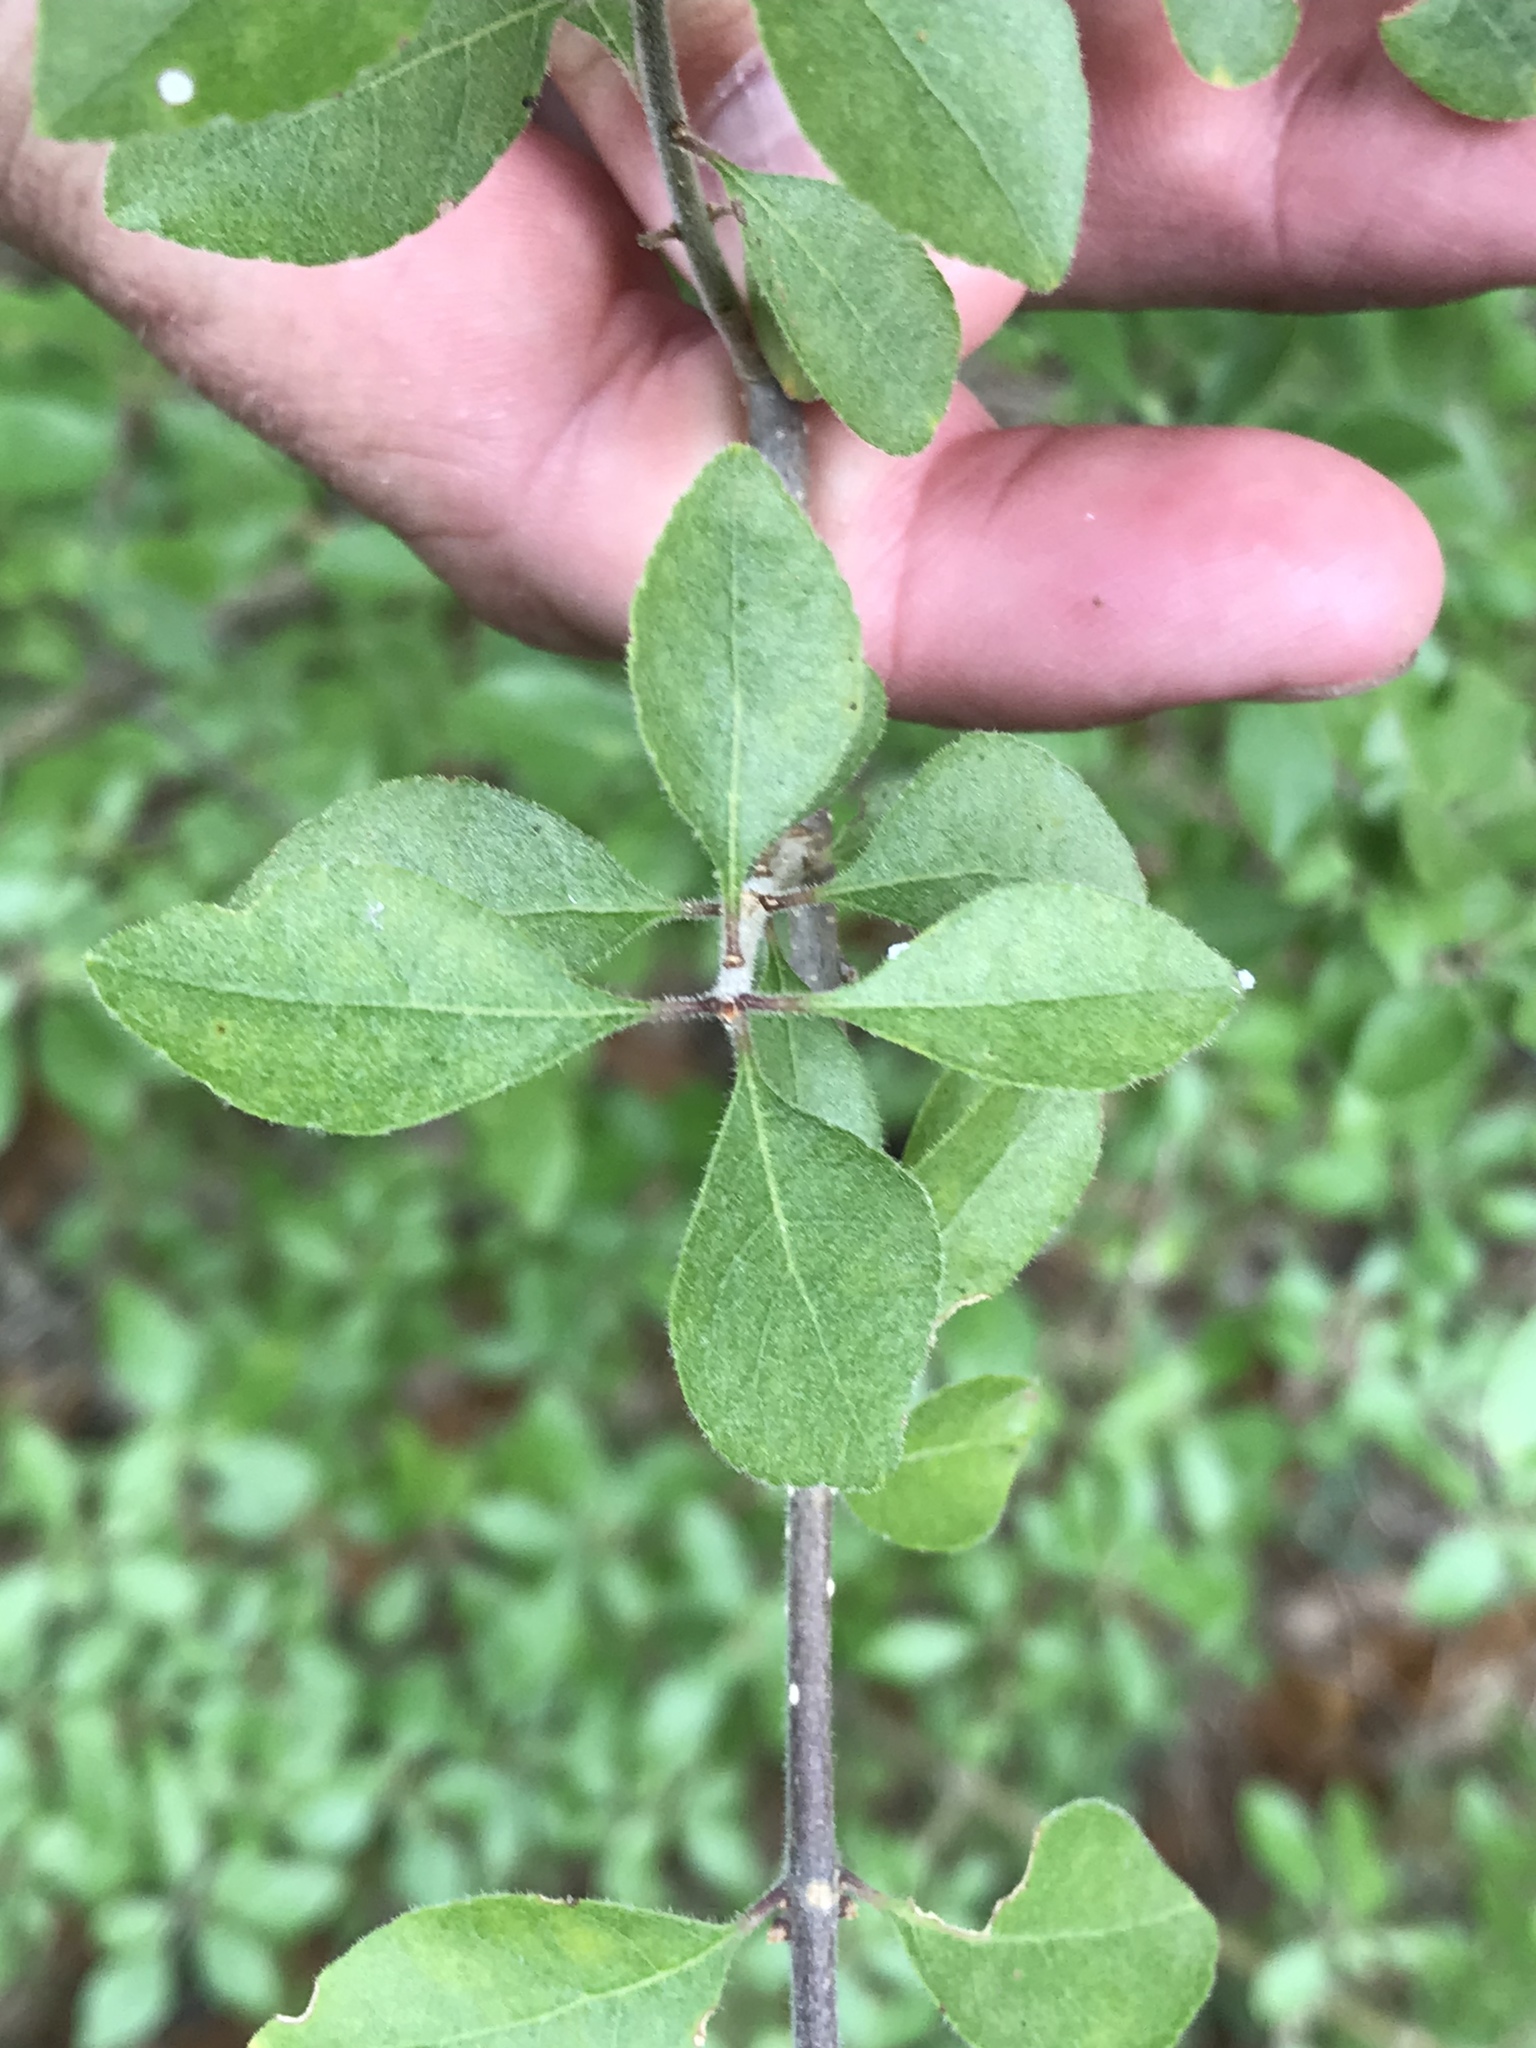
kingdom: Plantae
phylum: Tracheophyta
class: Magnoliopsida
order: Lamiales
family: Oleaceae
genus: Forestiera
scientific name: Forestiera pubescens
